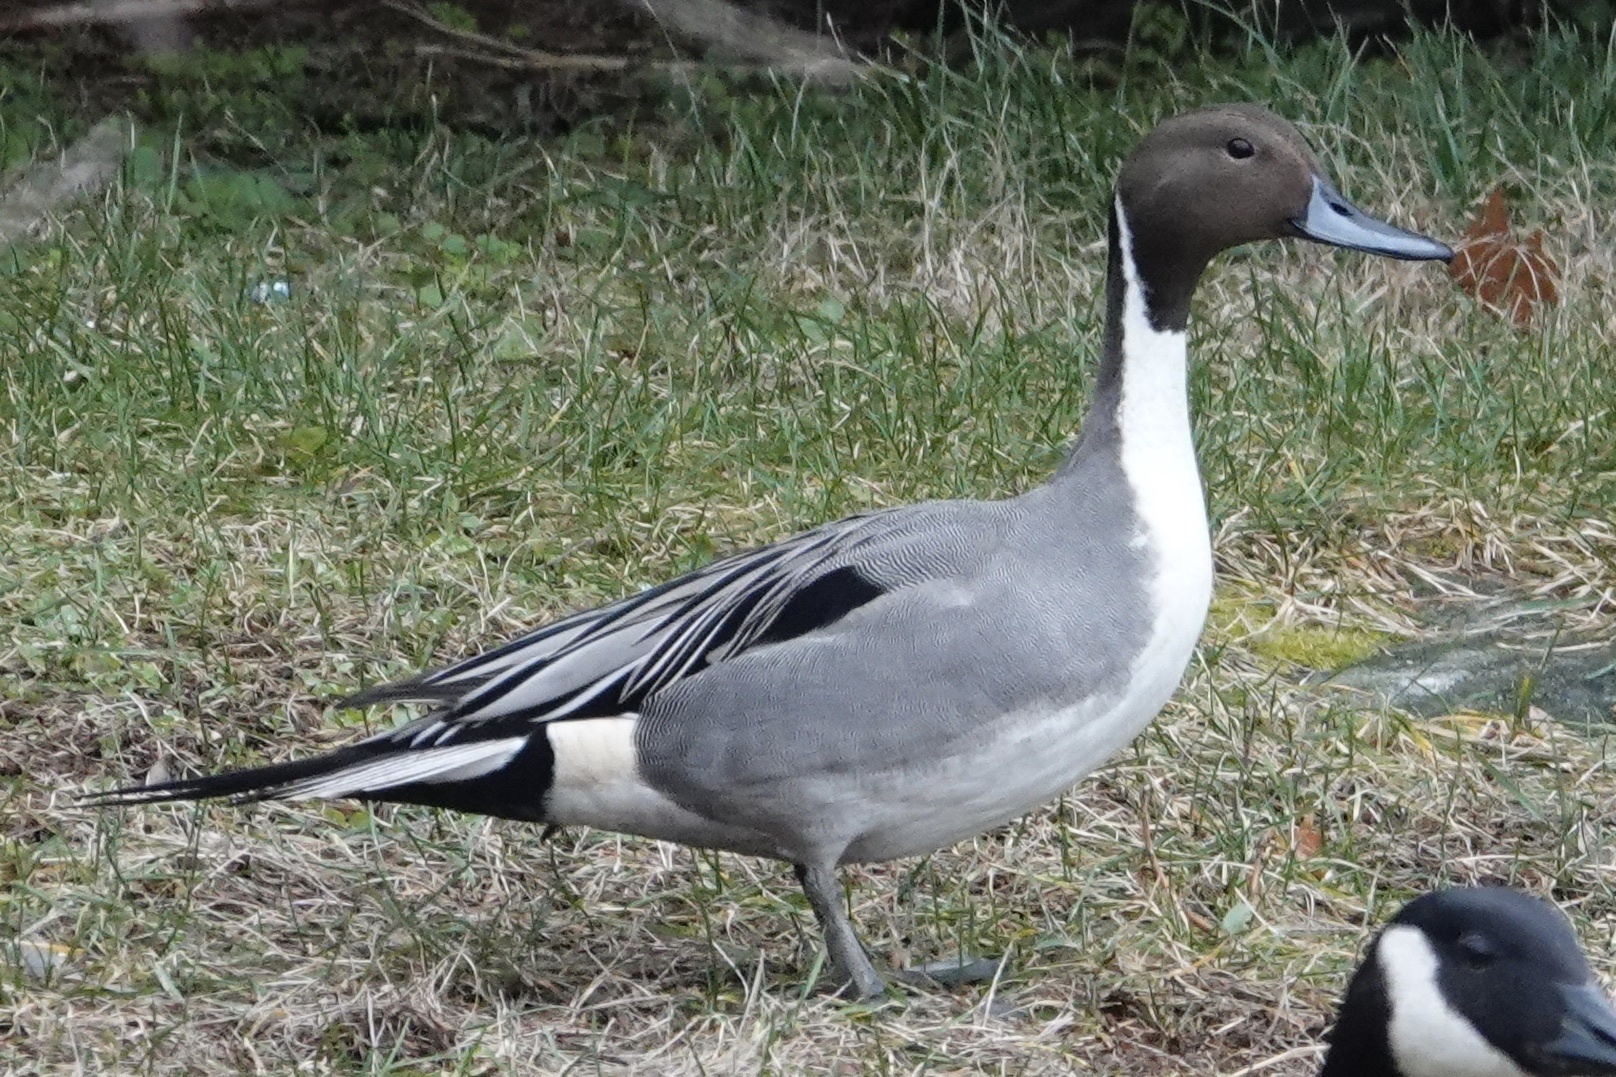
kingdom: Animalia
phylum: Chordata
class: Aves
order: Anseriformes
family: Anatidae
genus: Anas
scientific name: Anas acuta
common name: Northern pintail
